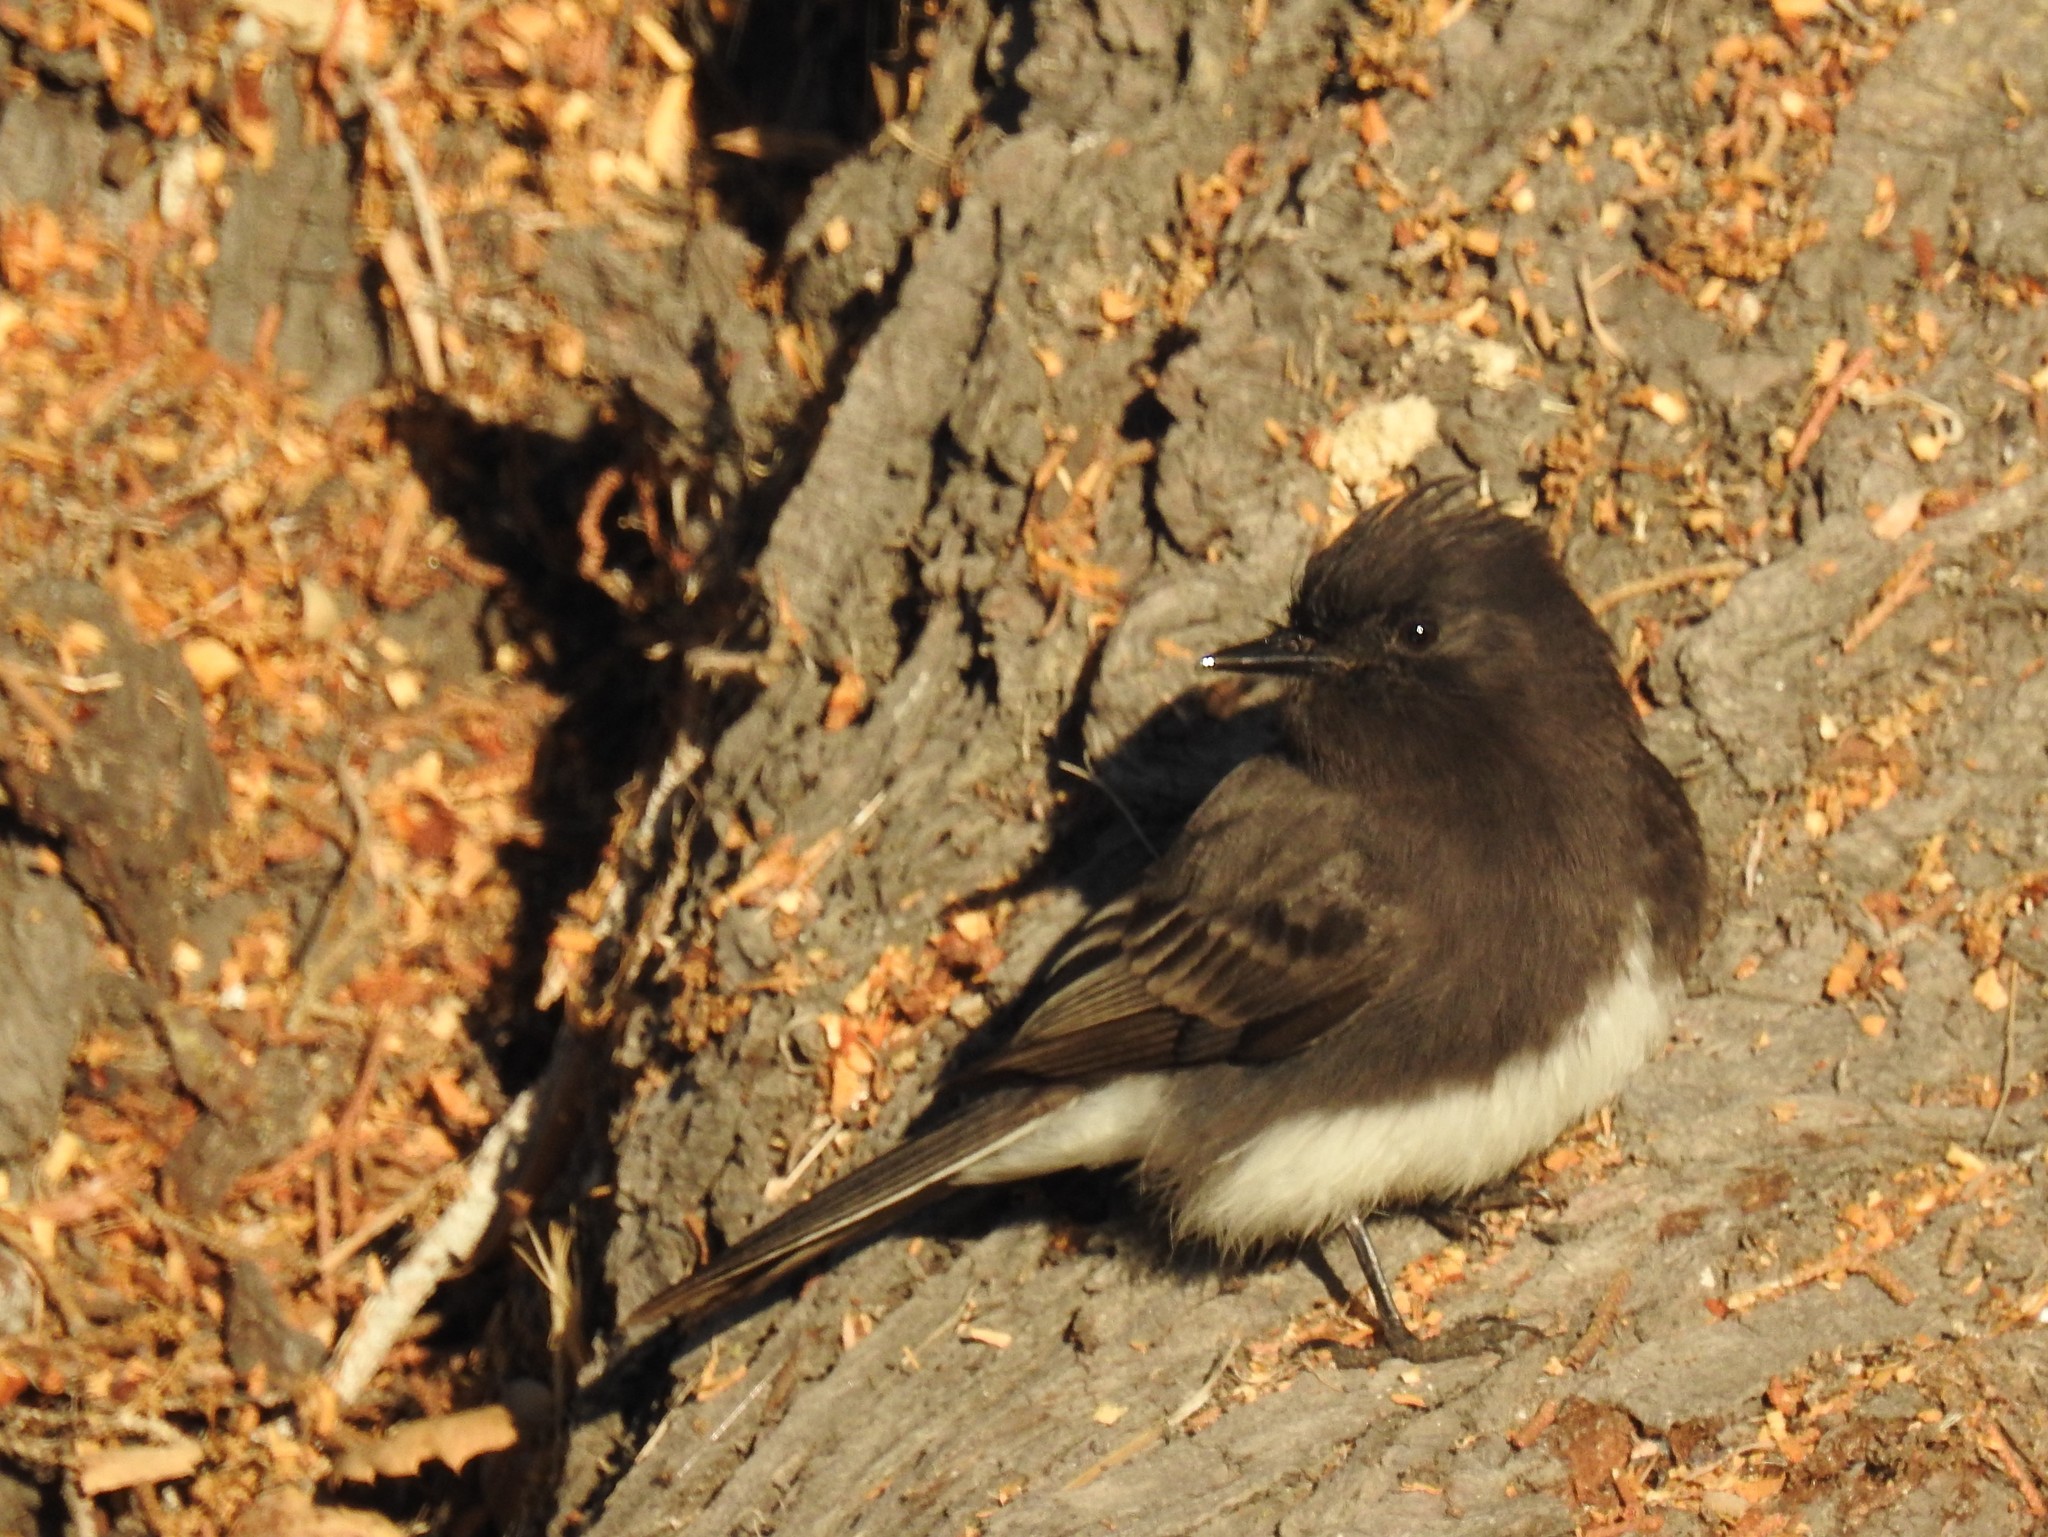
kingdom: Animalia
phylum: Chordata
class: Aves
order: Passeriformes
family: Tyrannidae
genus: Sayornis
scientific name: Sayornis nigricans
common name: Black phoebe
